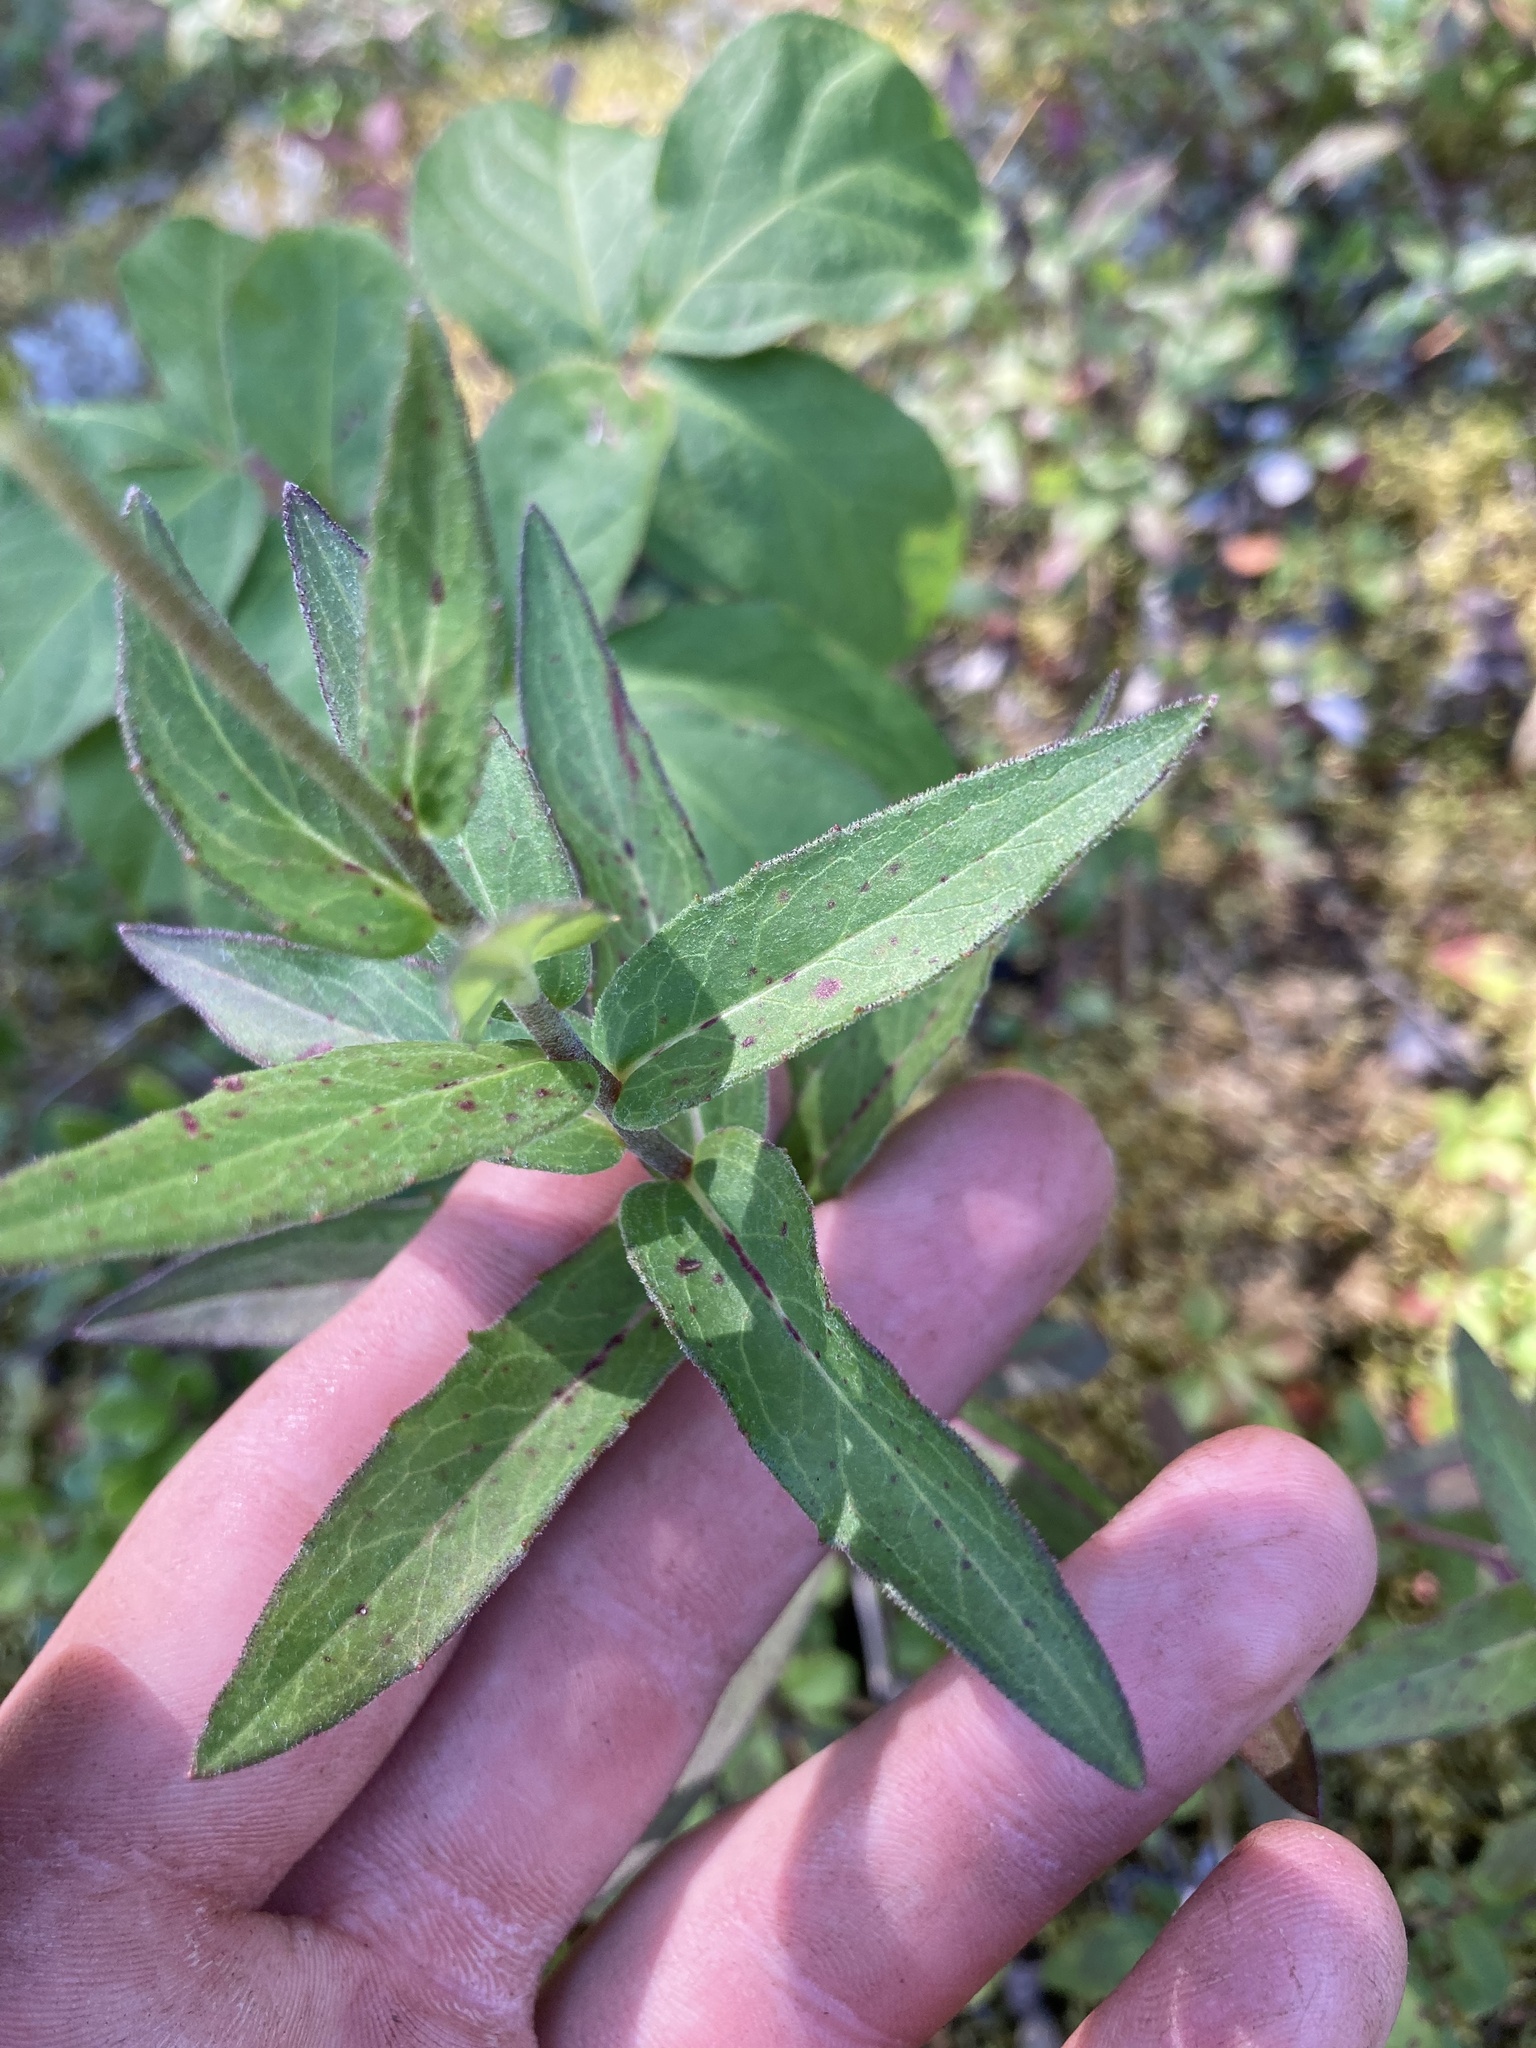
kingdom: Plantae
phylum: Tracheophyta
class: Magnoliopsida
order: Asterales
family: Asteraceae
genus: Hieracium
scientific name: Hieracium umbellatum
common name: Northern hawkweed
